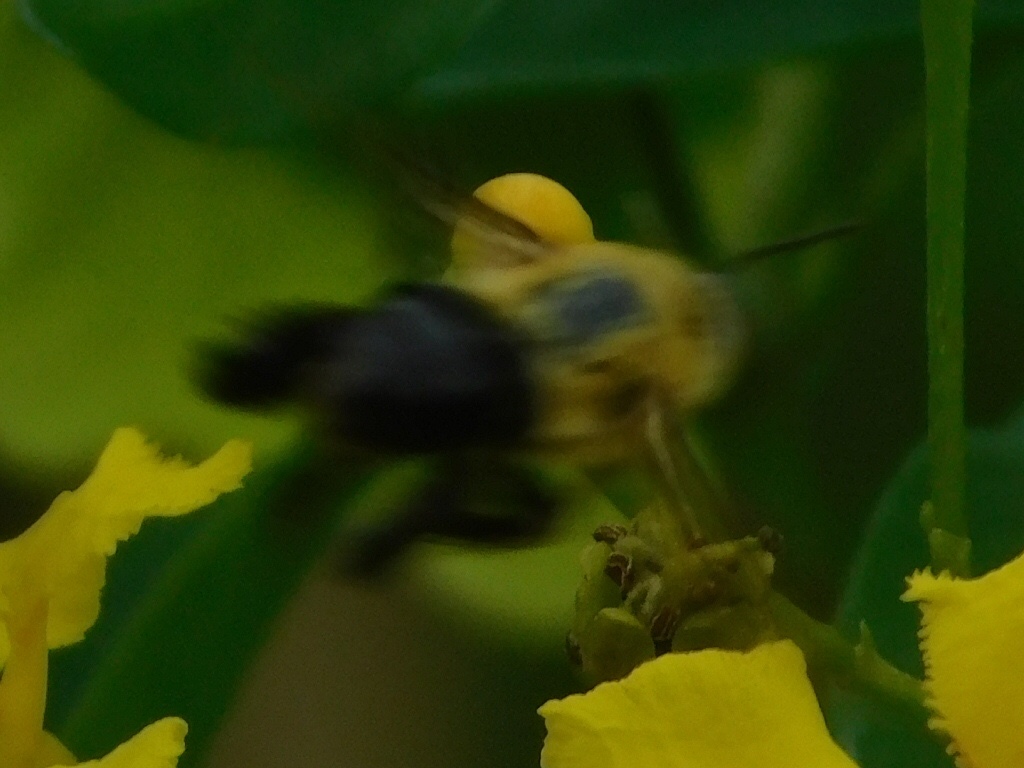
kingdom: Animalia
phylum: Arthropoda
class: Insecta
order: Hymenoptera
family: Apidae
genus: Centris
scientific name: Centris nitida
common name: Oil-collecting bee
